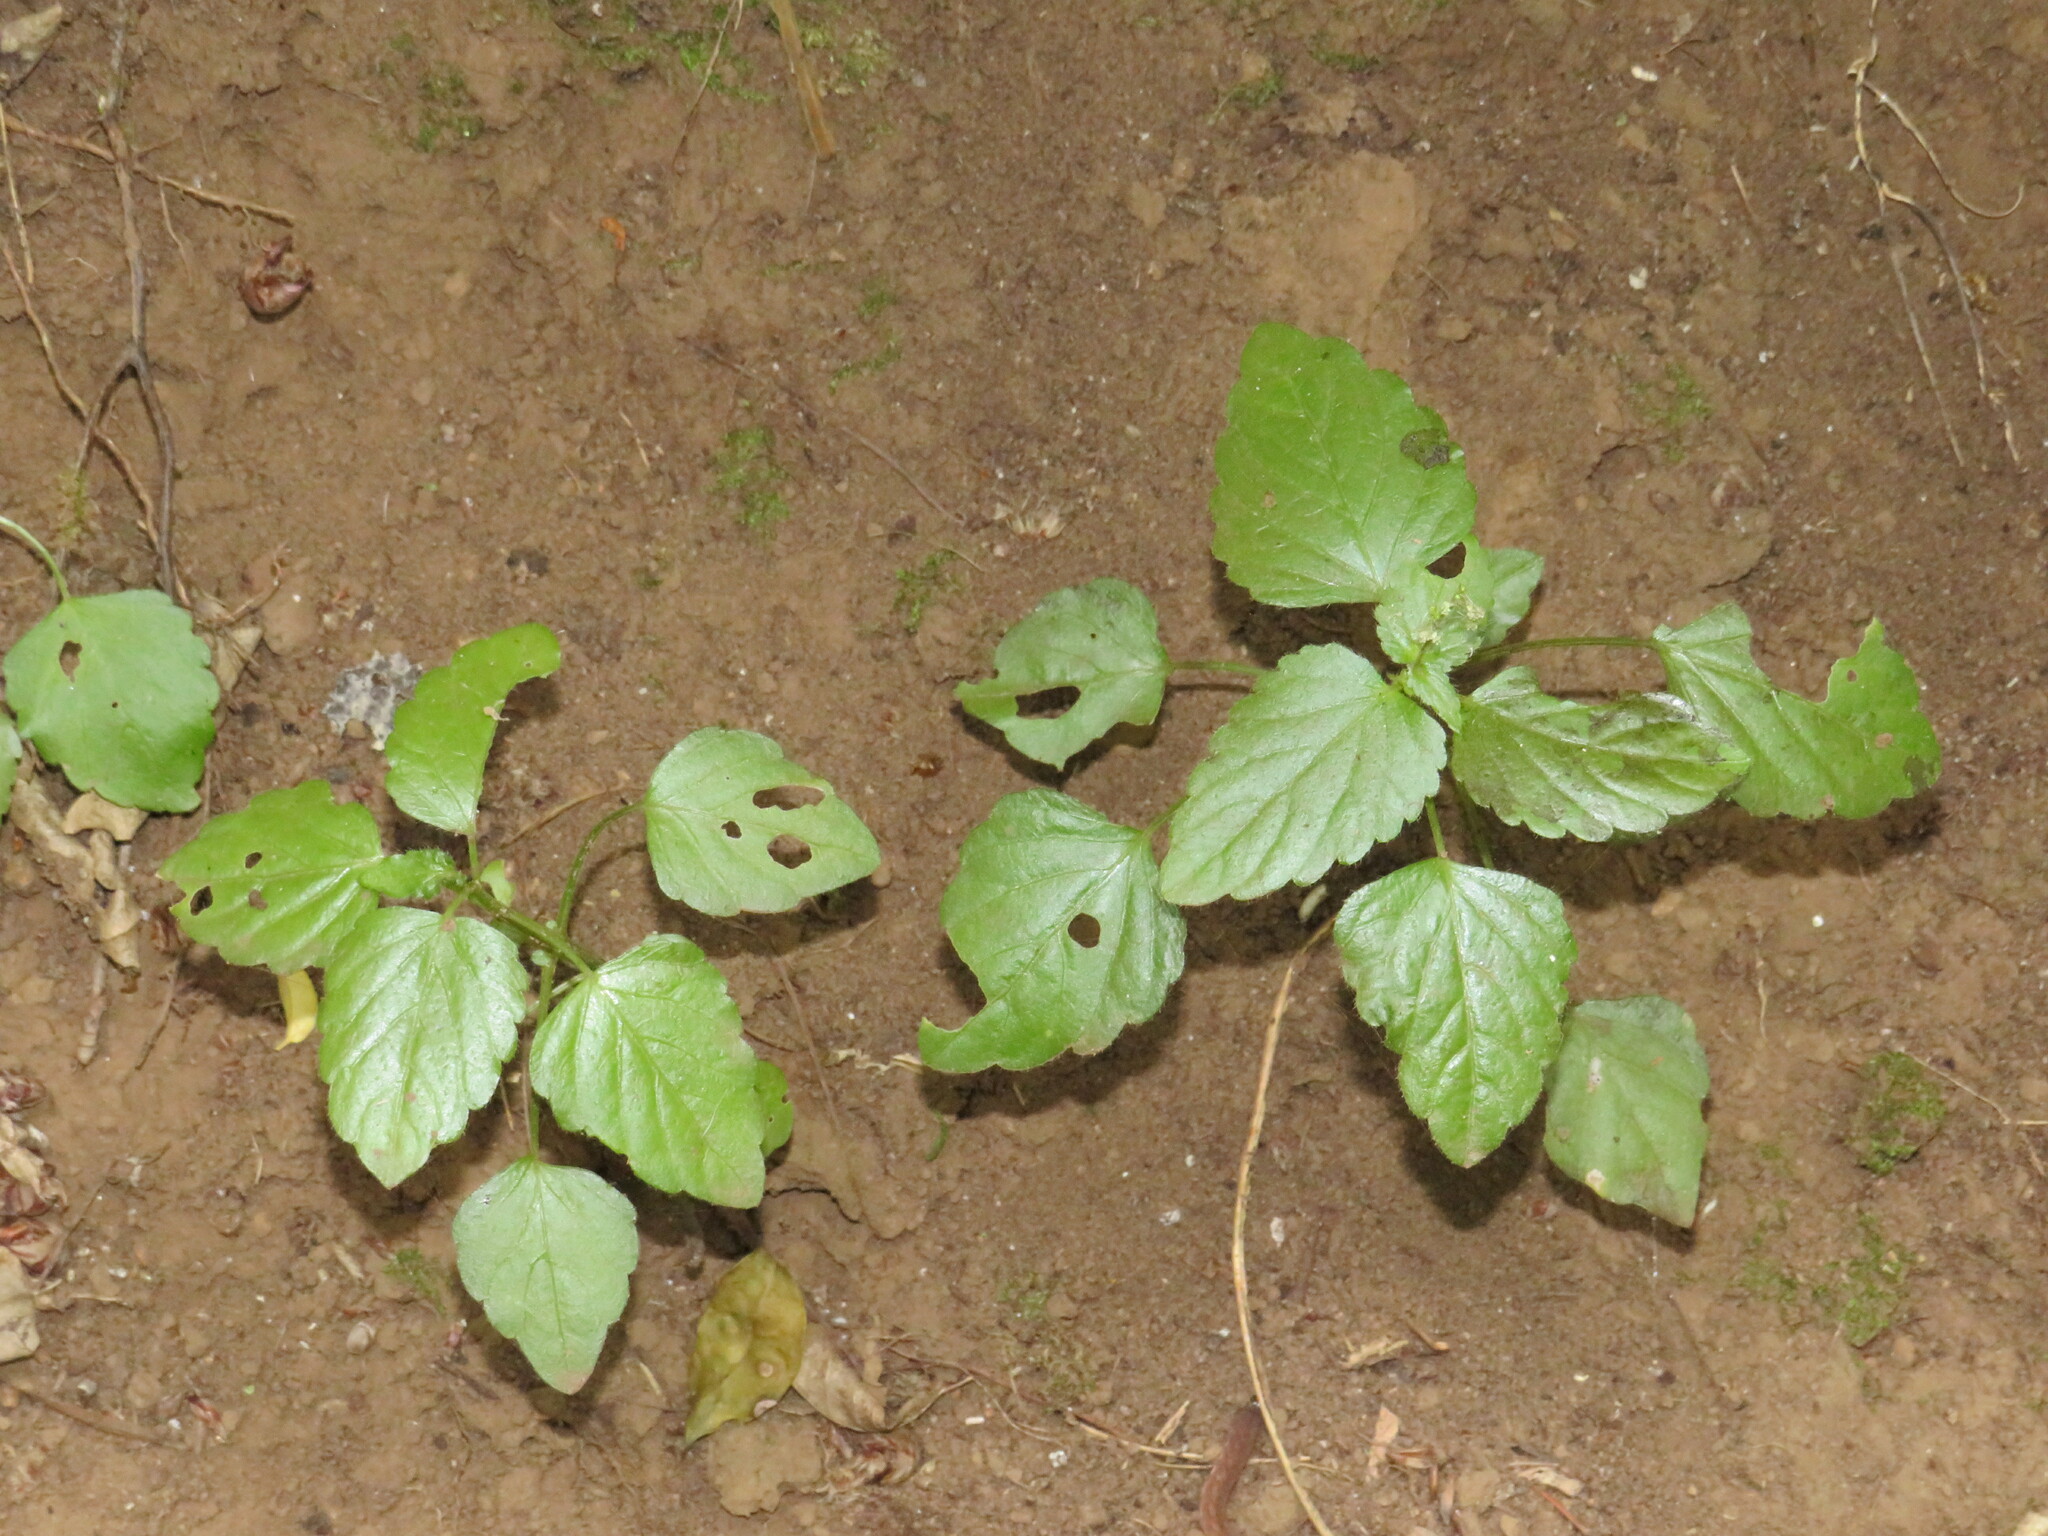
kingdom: Plantae
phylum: Tracheophyta
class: Magnoliopsida
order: Malpighiales
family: Euphorbiaceae
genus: Leidesia
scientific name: Leidesia procumbens
